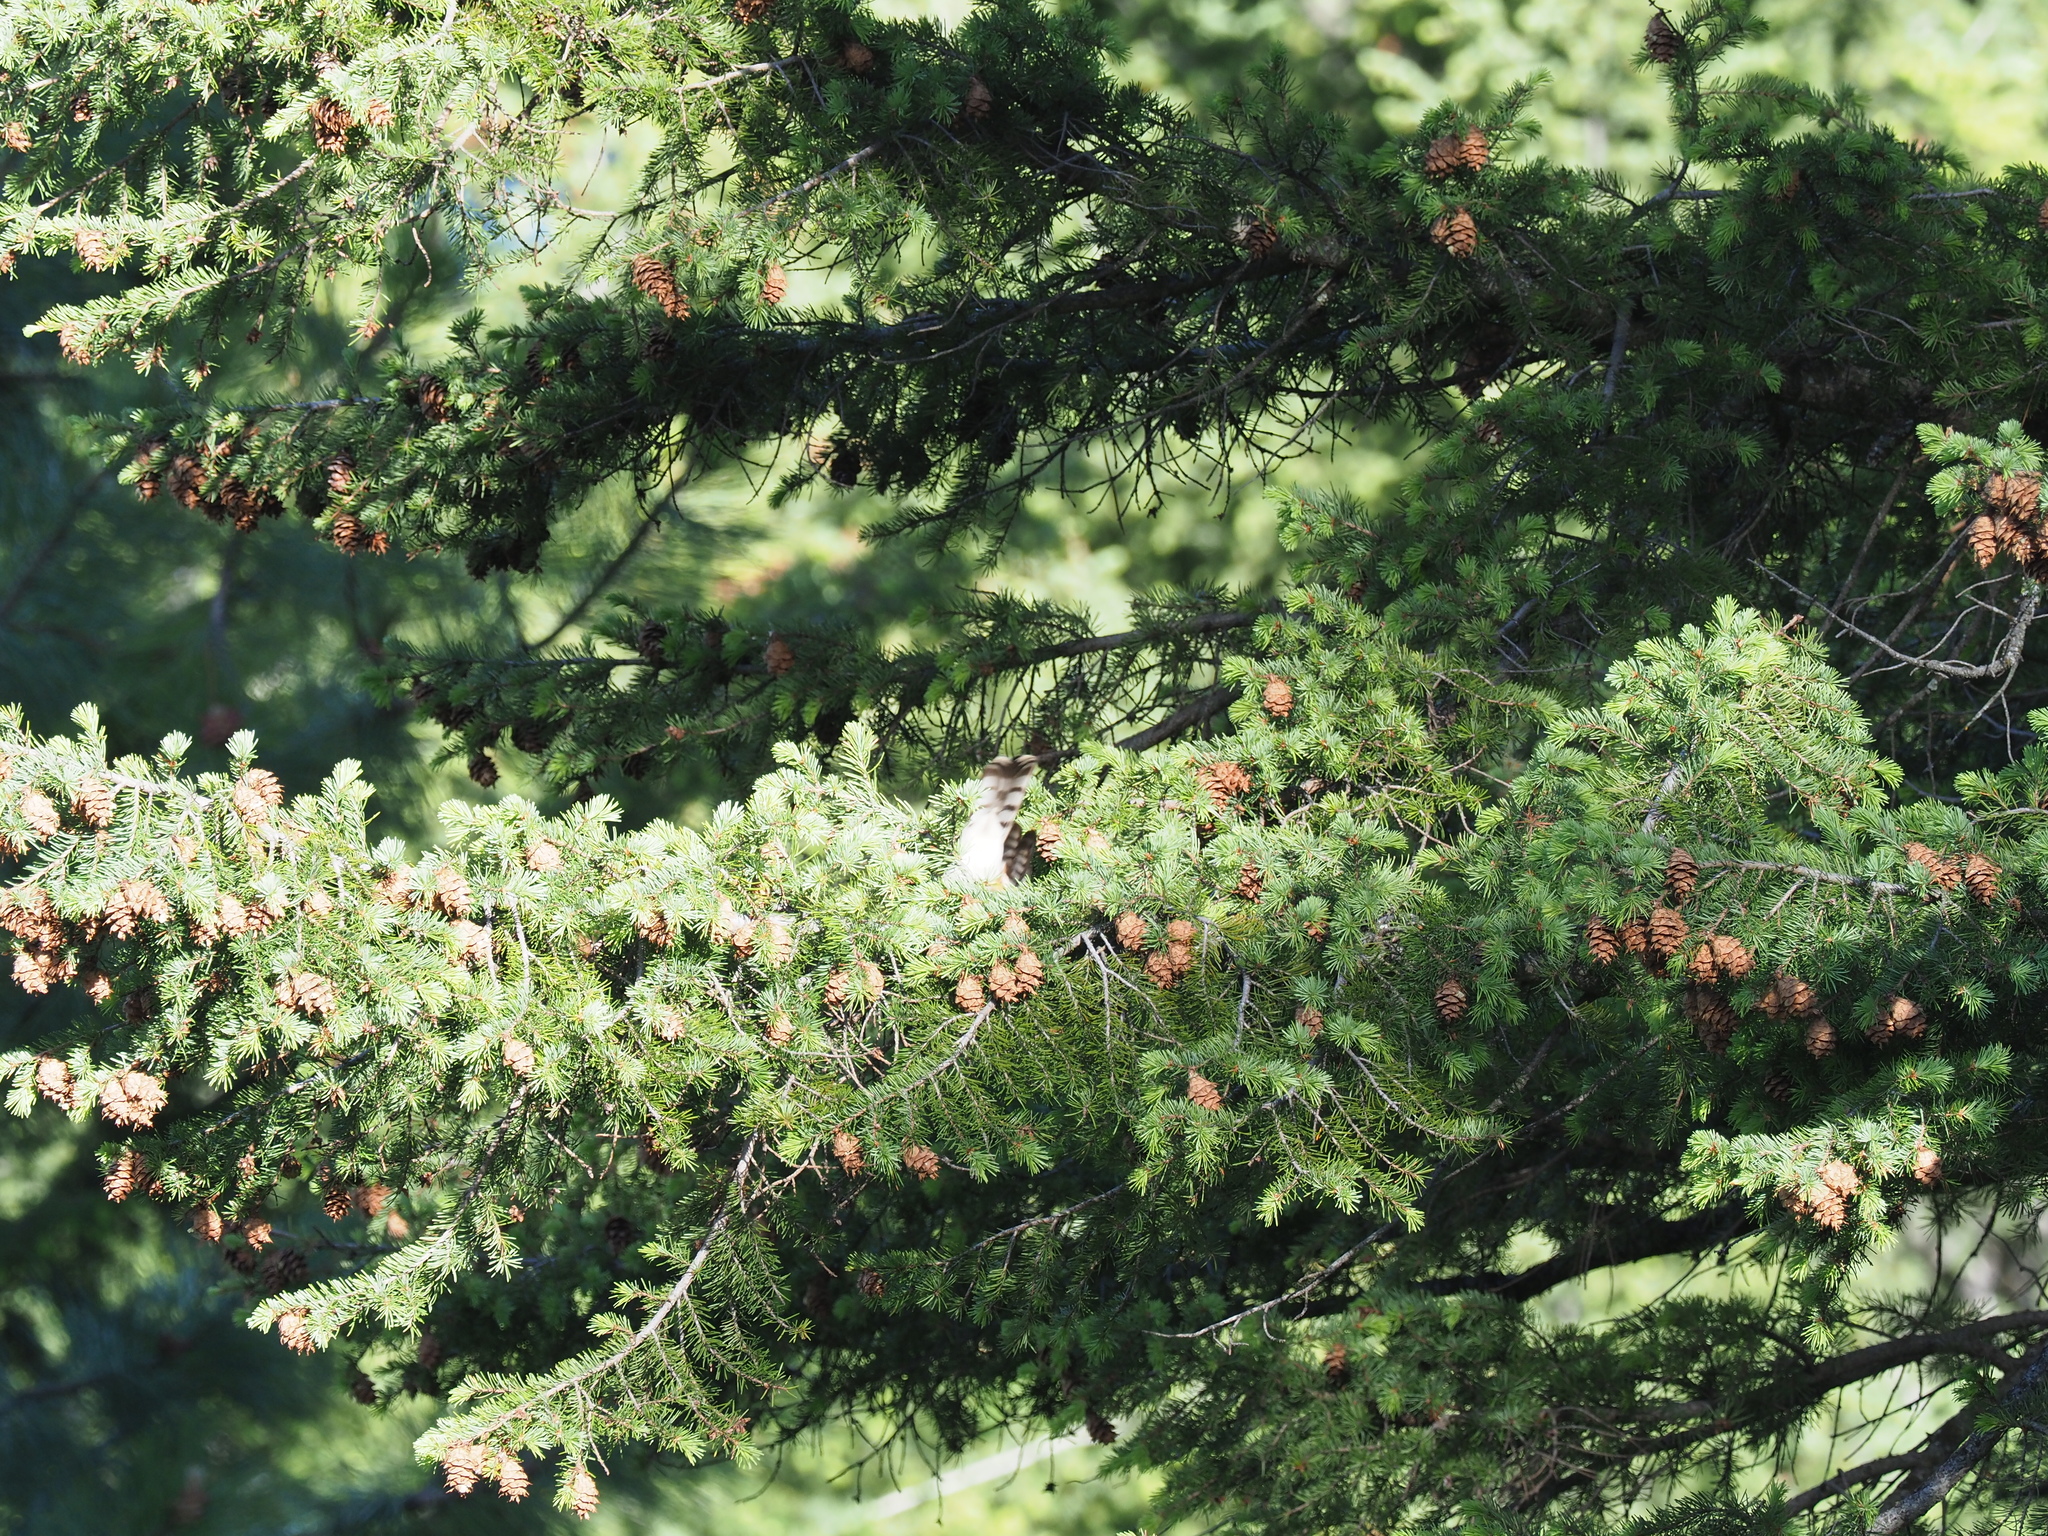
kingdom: Animalia
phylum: Chordata
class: Aves
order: Accipitriformes
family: Accipitridae
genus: Accipiter
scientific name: Accipiter cooperii
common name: Cooper's hawk
